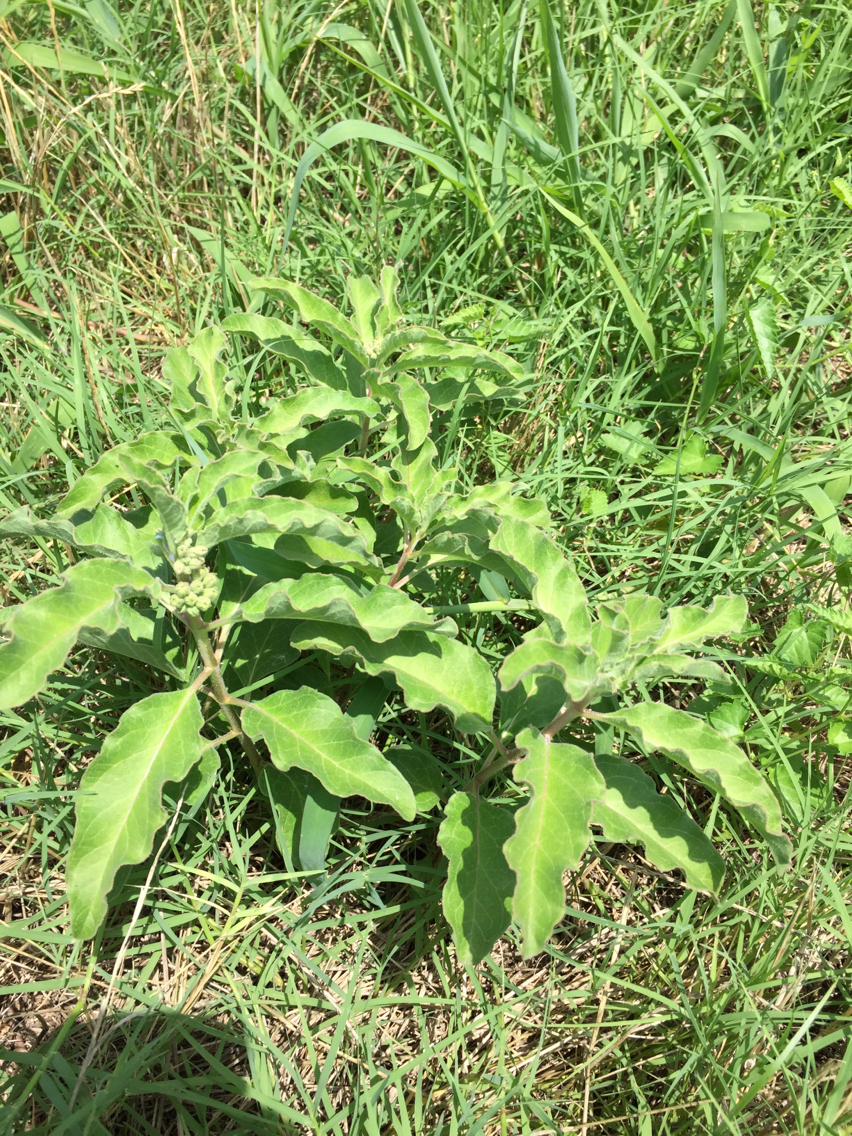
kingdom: Plantae
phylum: Tracheophyta
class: Magnoliopsida
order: Gentianales
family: Apocynaceae
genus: Asclepias
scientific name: Asclepias oenotheroides
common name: Zizotes milkweed
